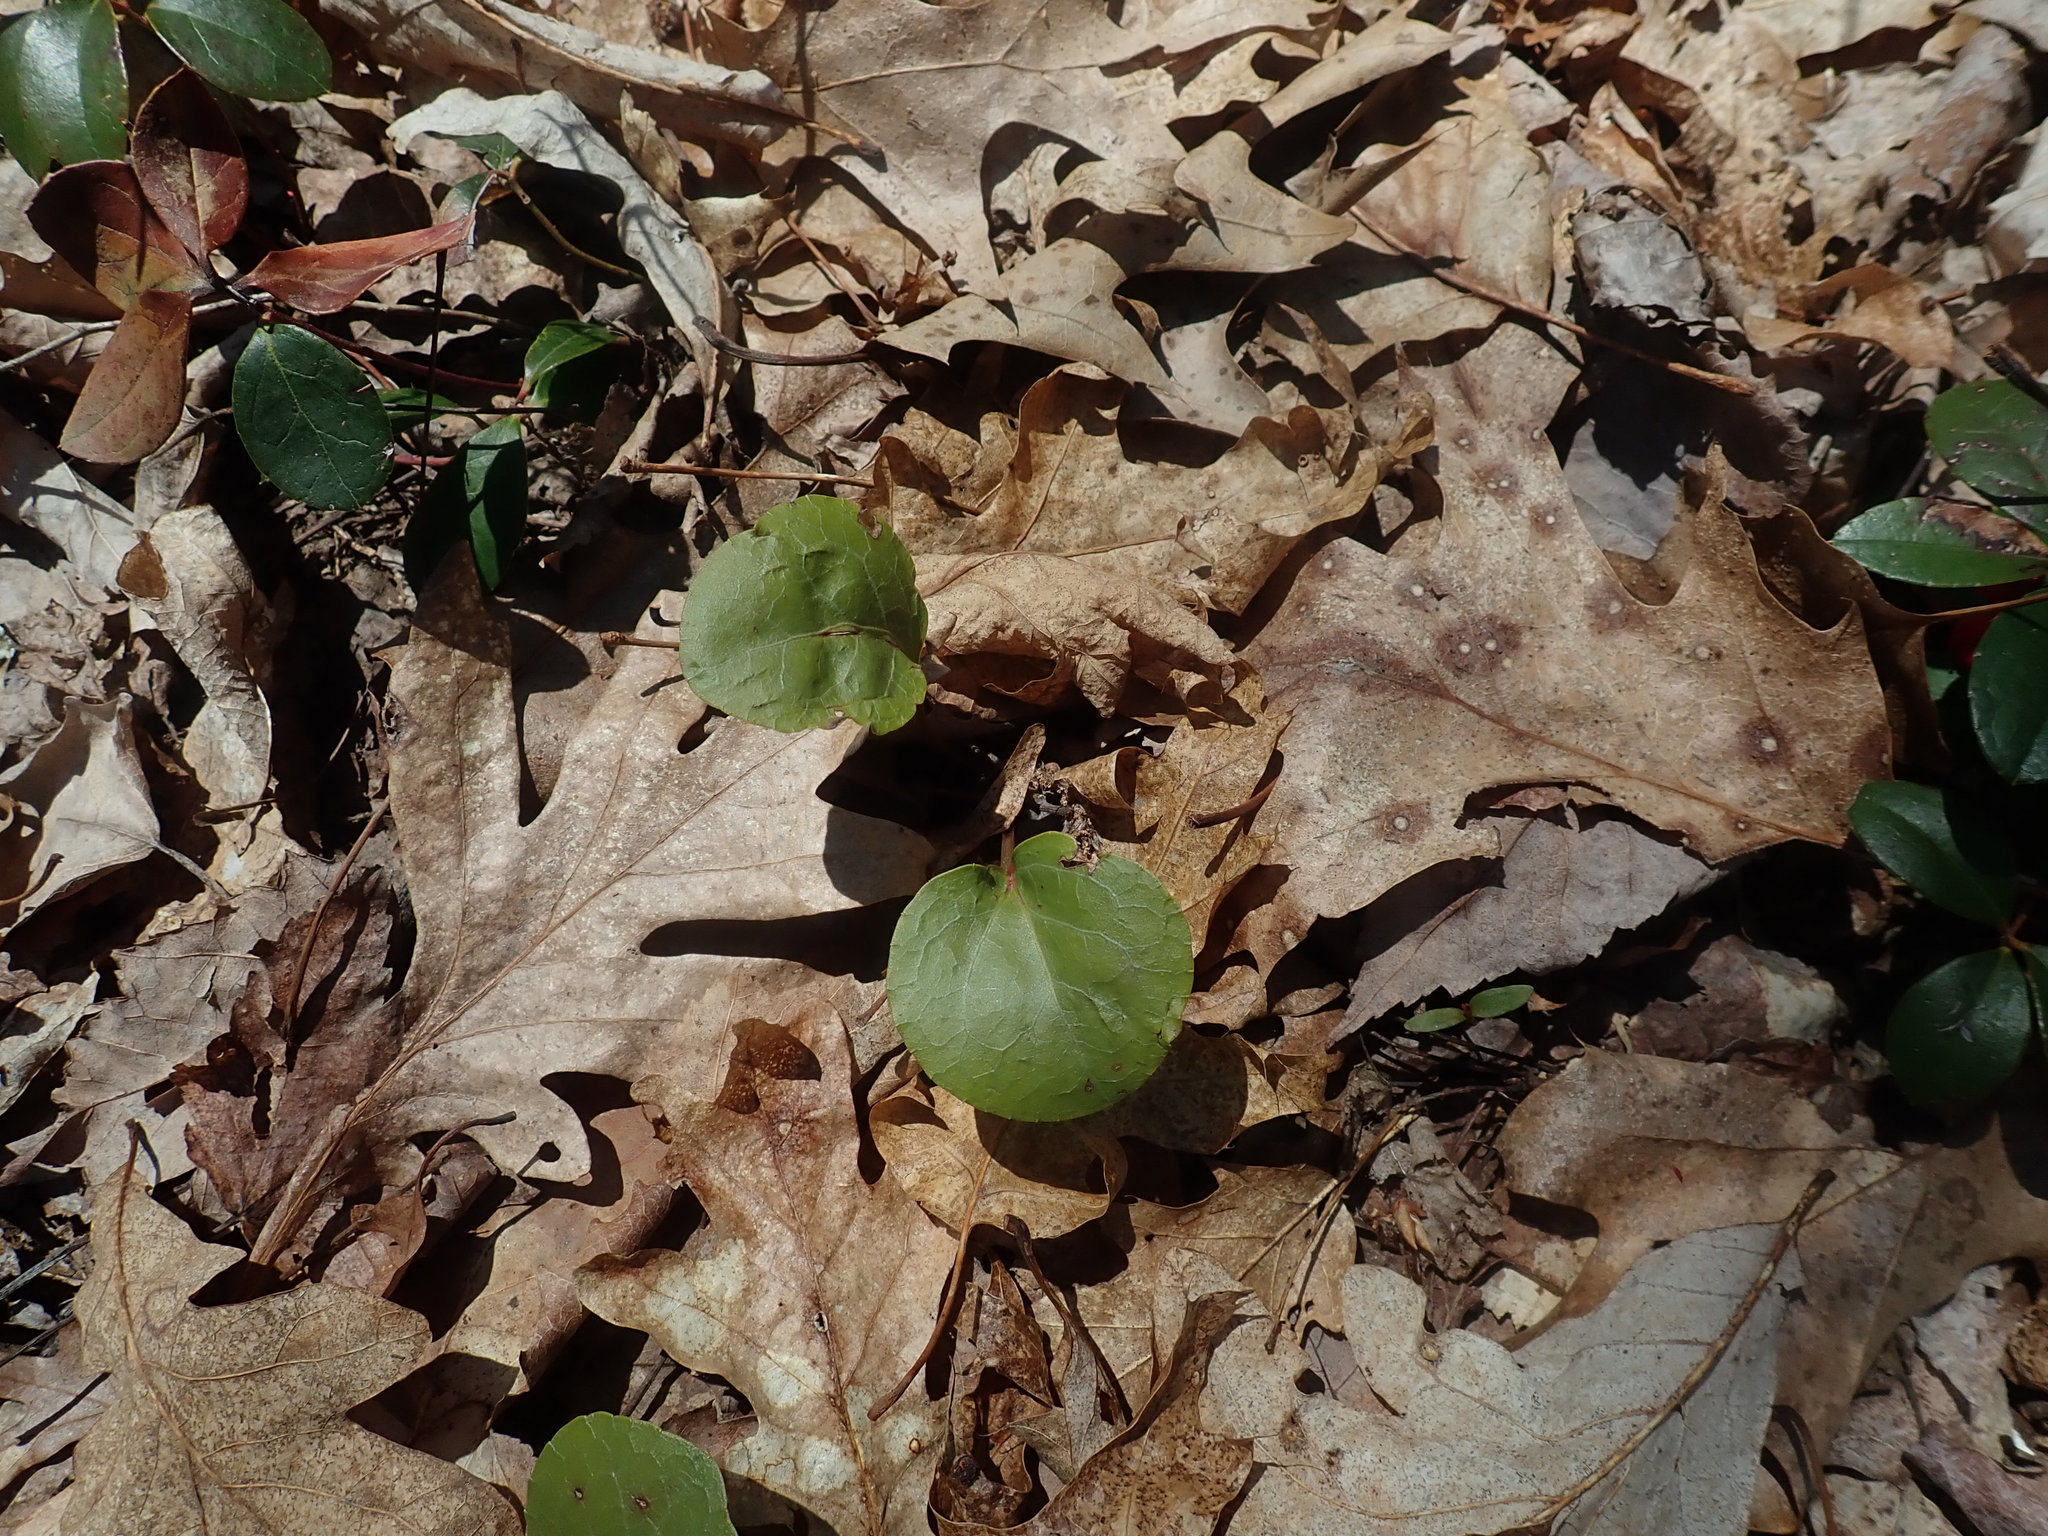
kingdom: Plantae
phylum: Tracheophyta
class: Magnoliopsida
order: Ericales
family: Ericaceae
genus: Pyrola
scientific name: Pyrola elliptica
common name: Shinleaf
